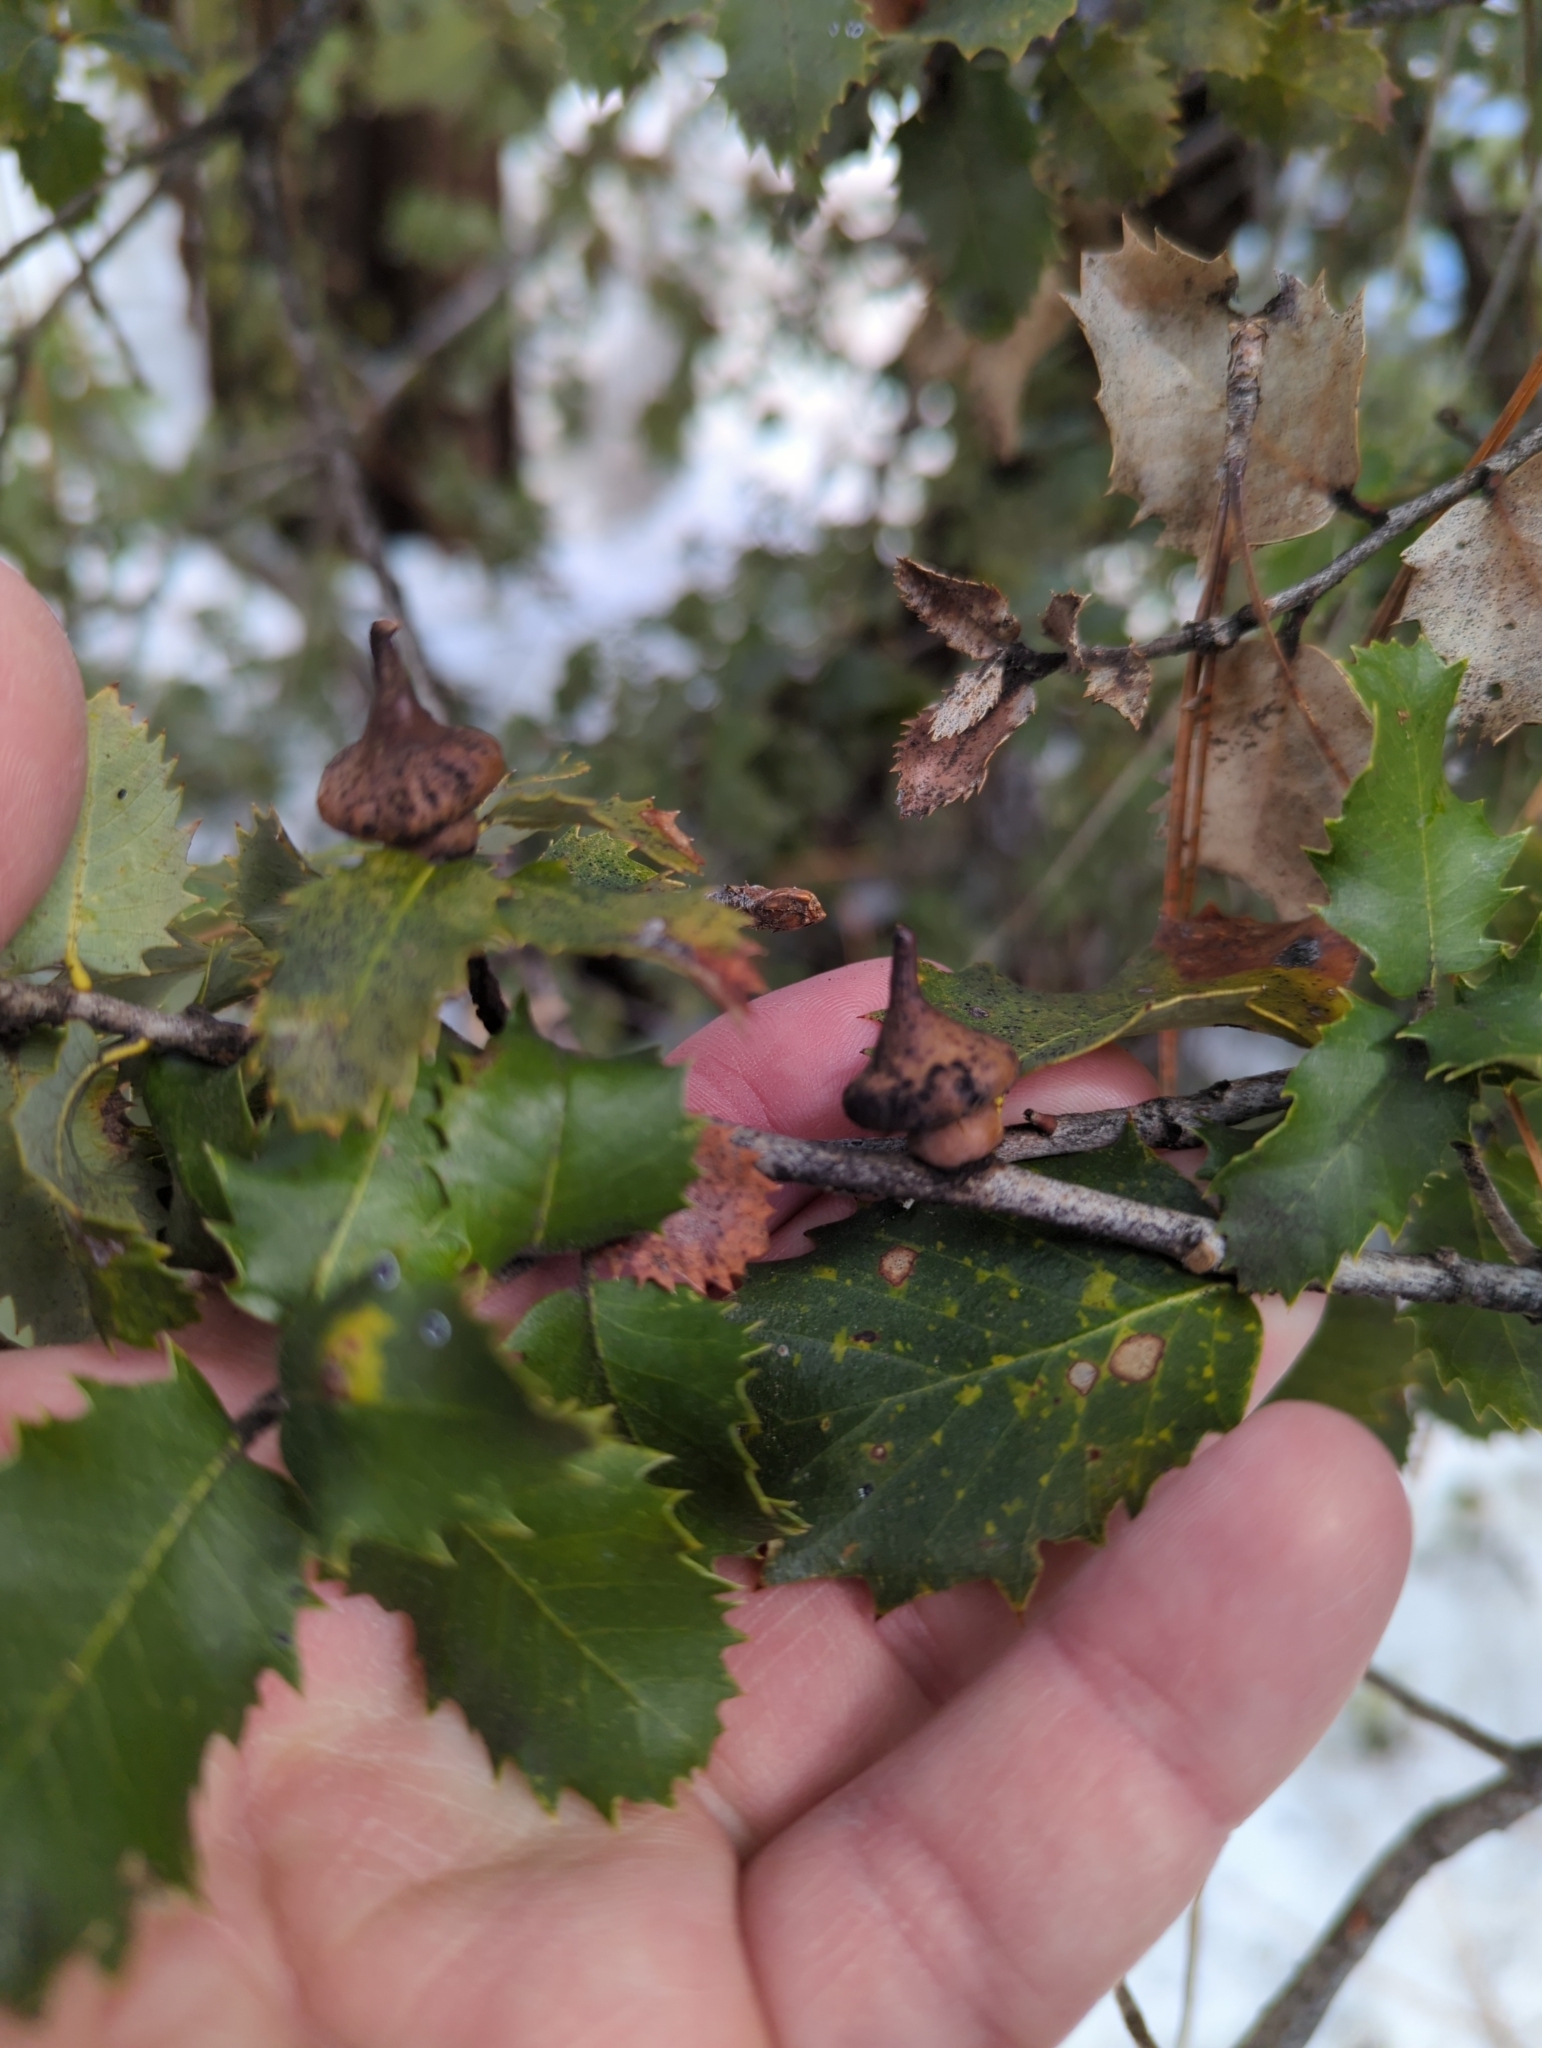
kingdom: Animalia
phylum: Arthropoda
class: Insecta
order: Hymenoptera
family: Cynipidae
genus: Heteroecus
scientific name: Heteroecus
